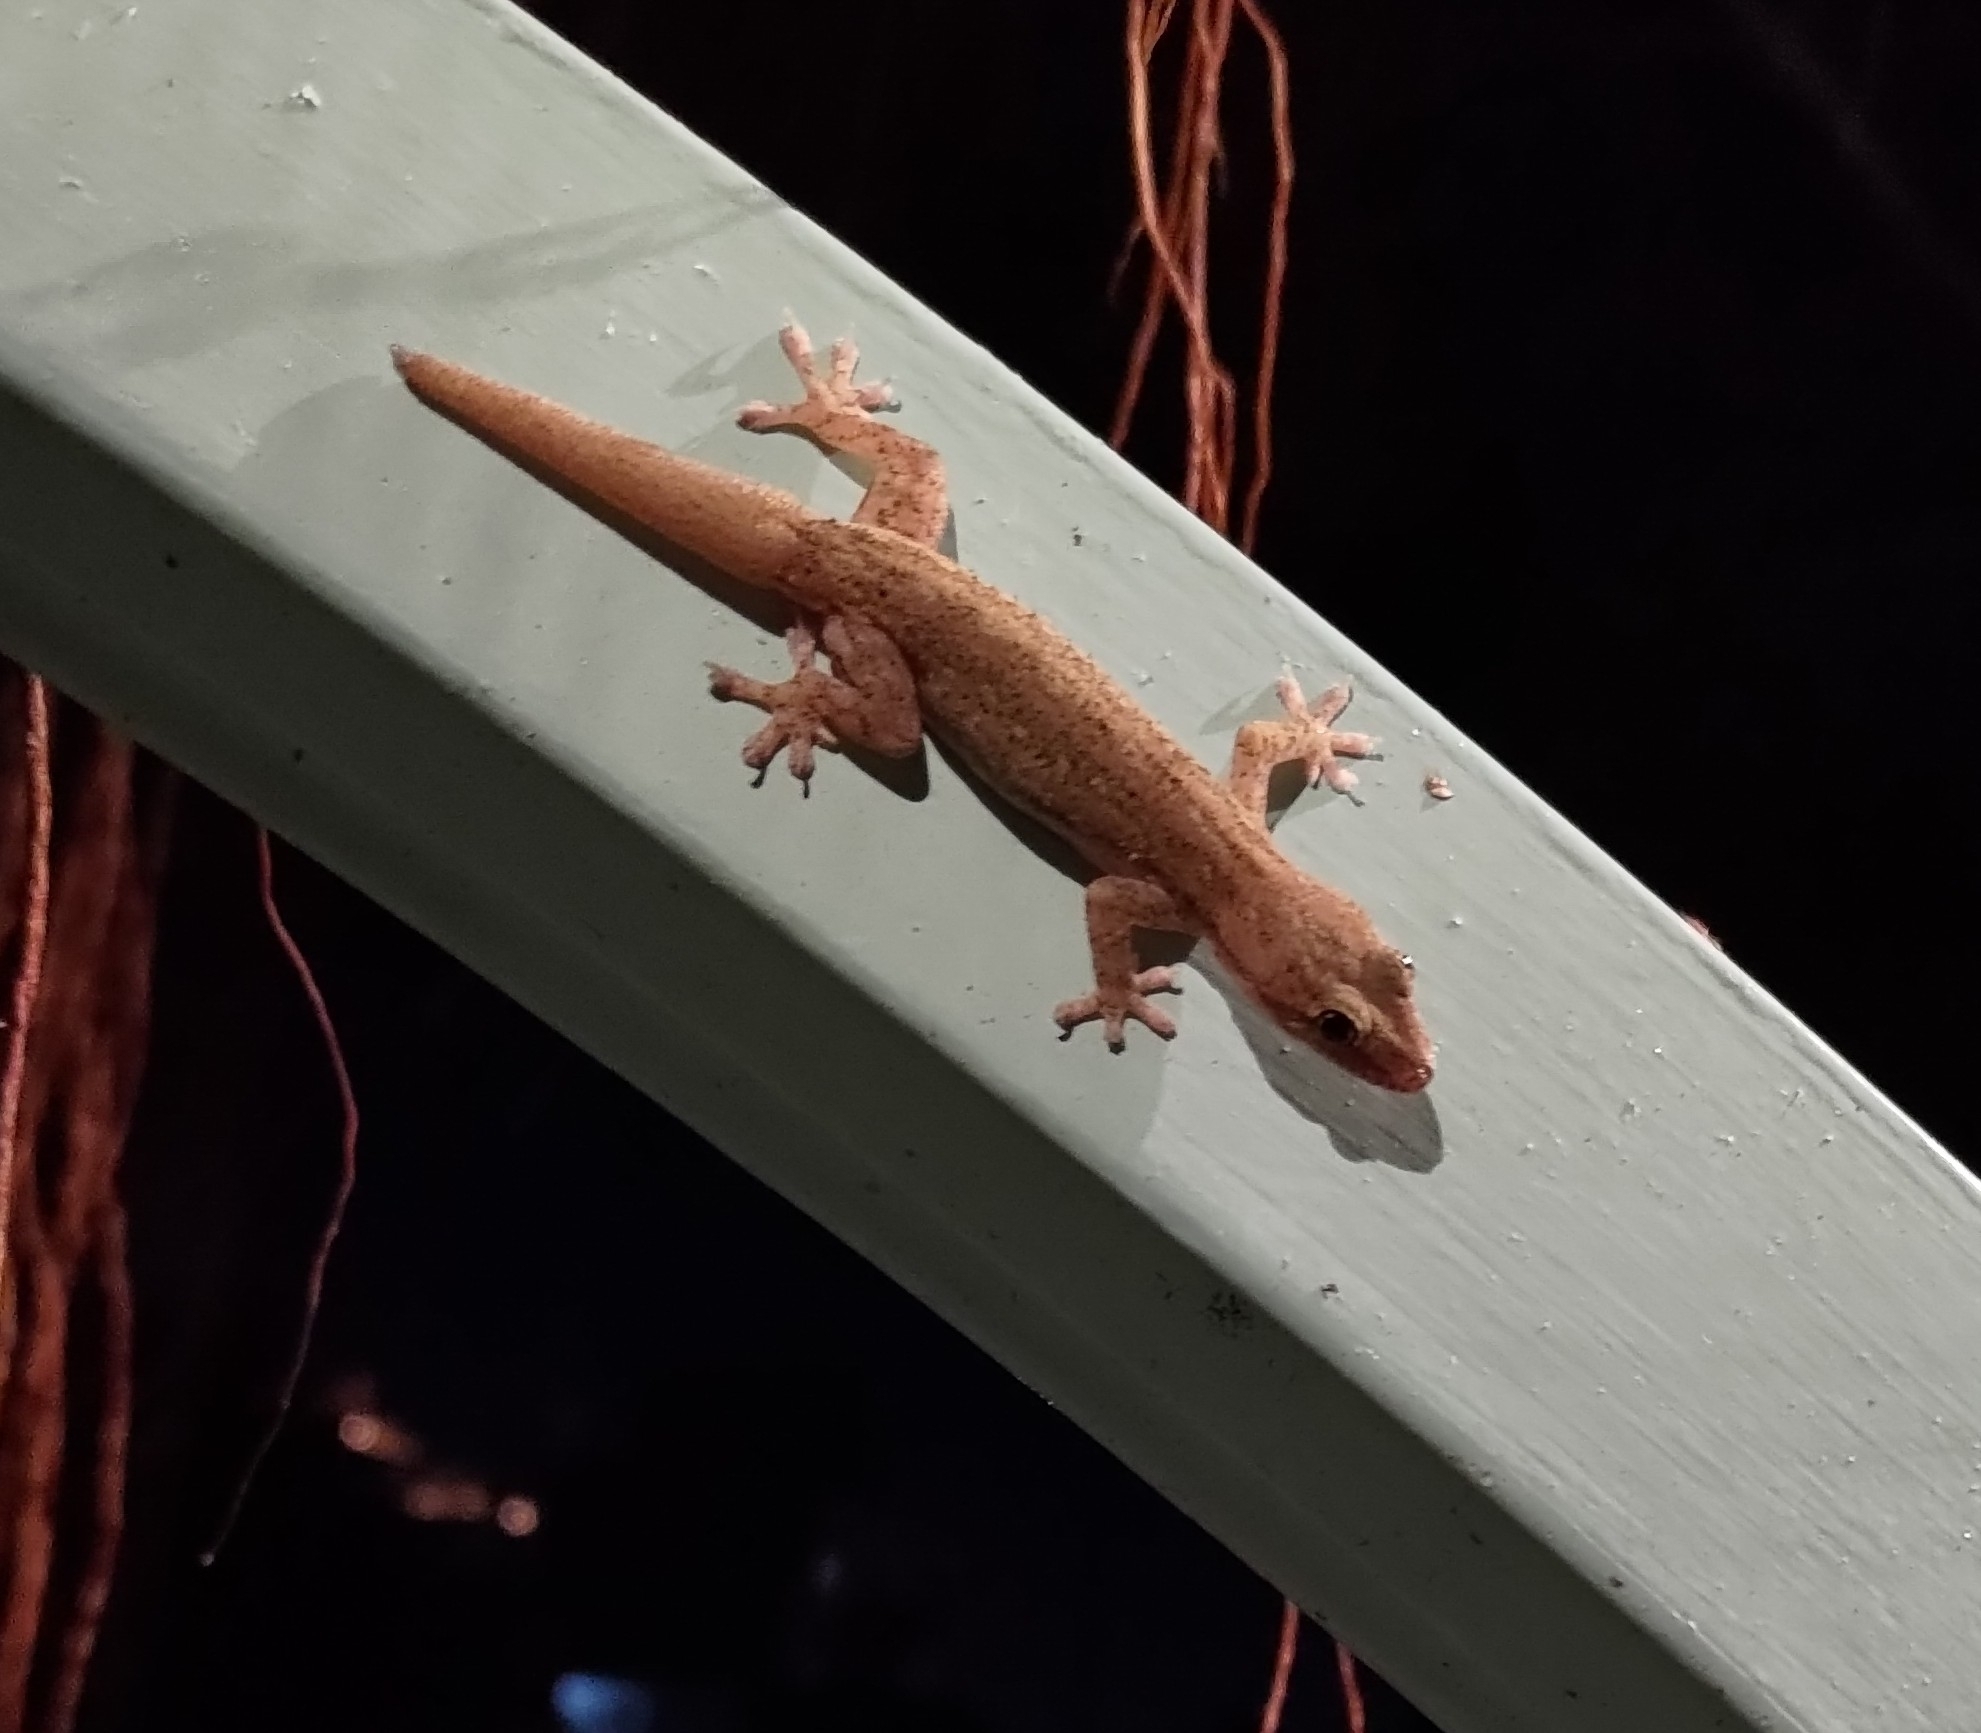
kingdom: Animalia
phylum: Chordata
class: Squamata
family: Gekkonidae
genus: Hemidactylus
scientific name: Hemidactylus frenatus
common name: Common house gecko
